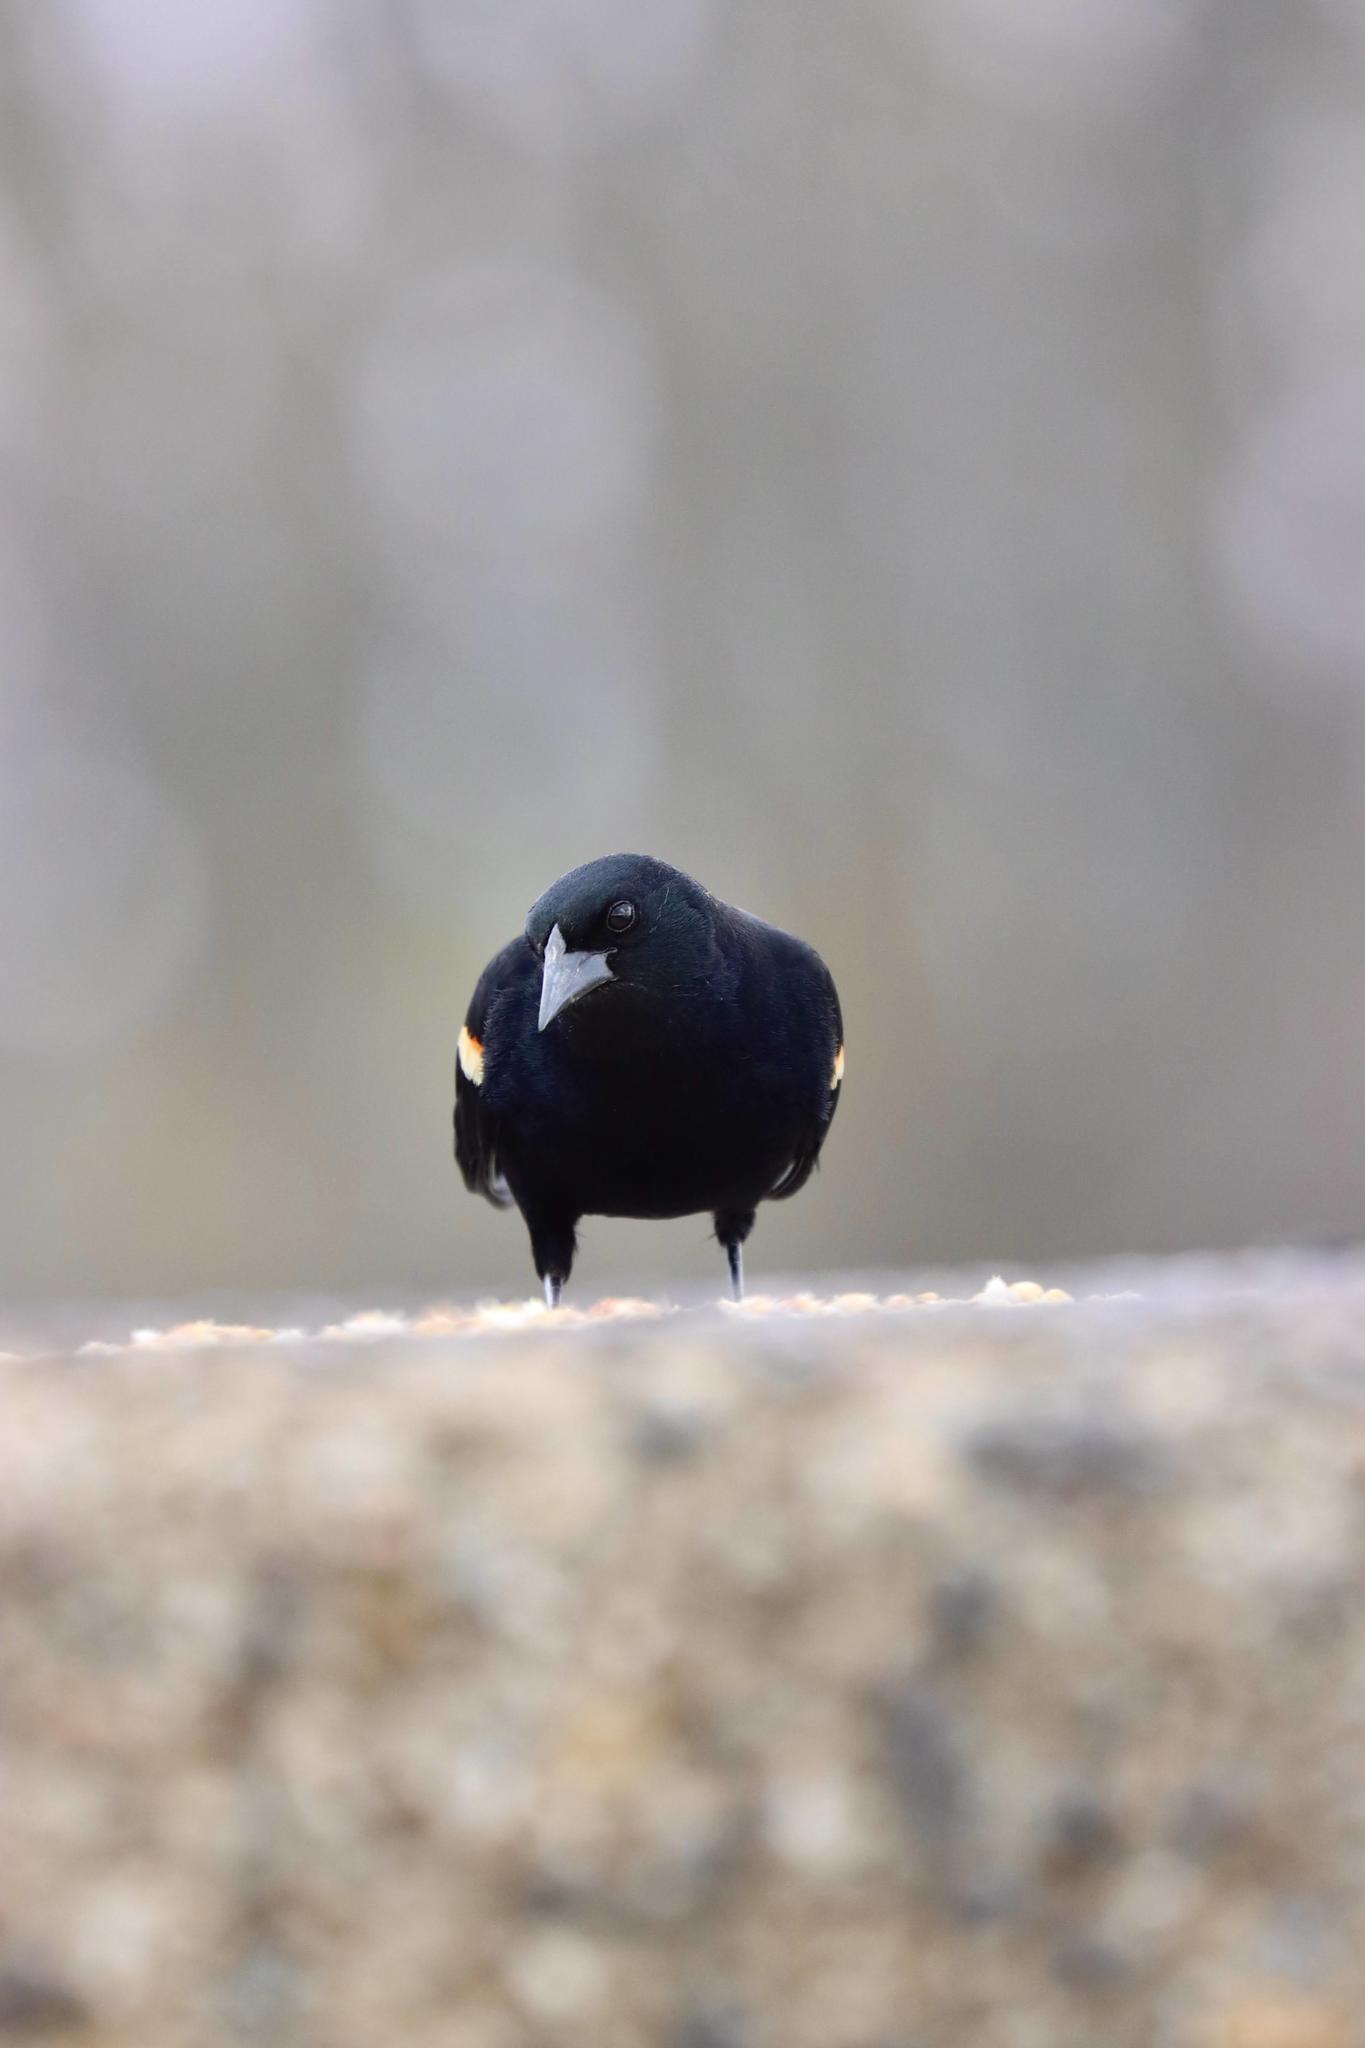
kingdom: Animalia
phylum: Chordata
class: Aves
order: Passeriformes
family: Icteridae
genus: Agelaius
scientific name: Agelaius phoeniceus
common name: Red-winged blackbird
